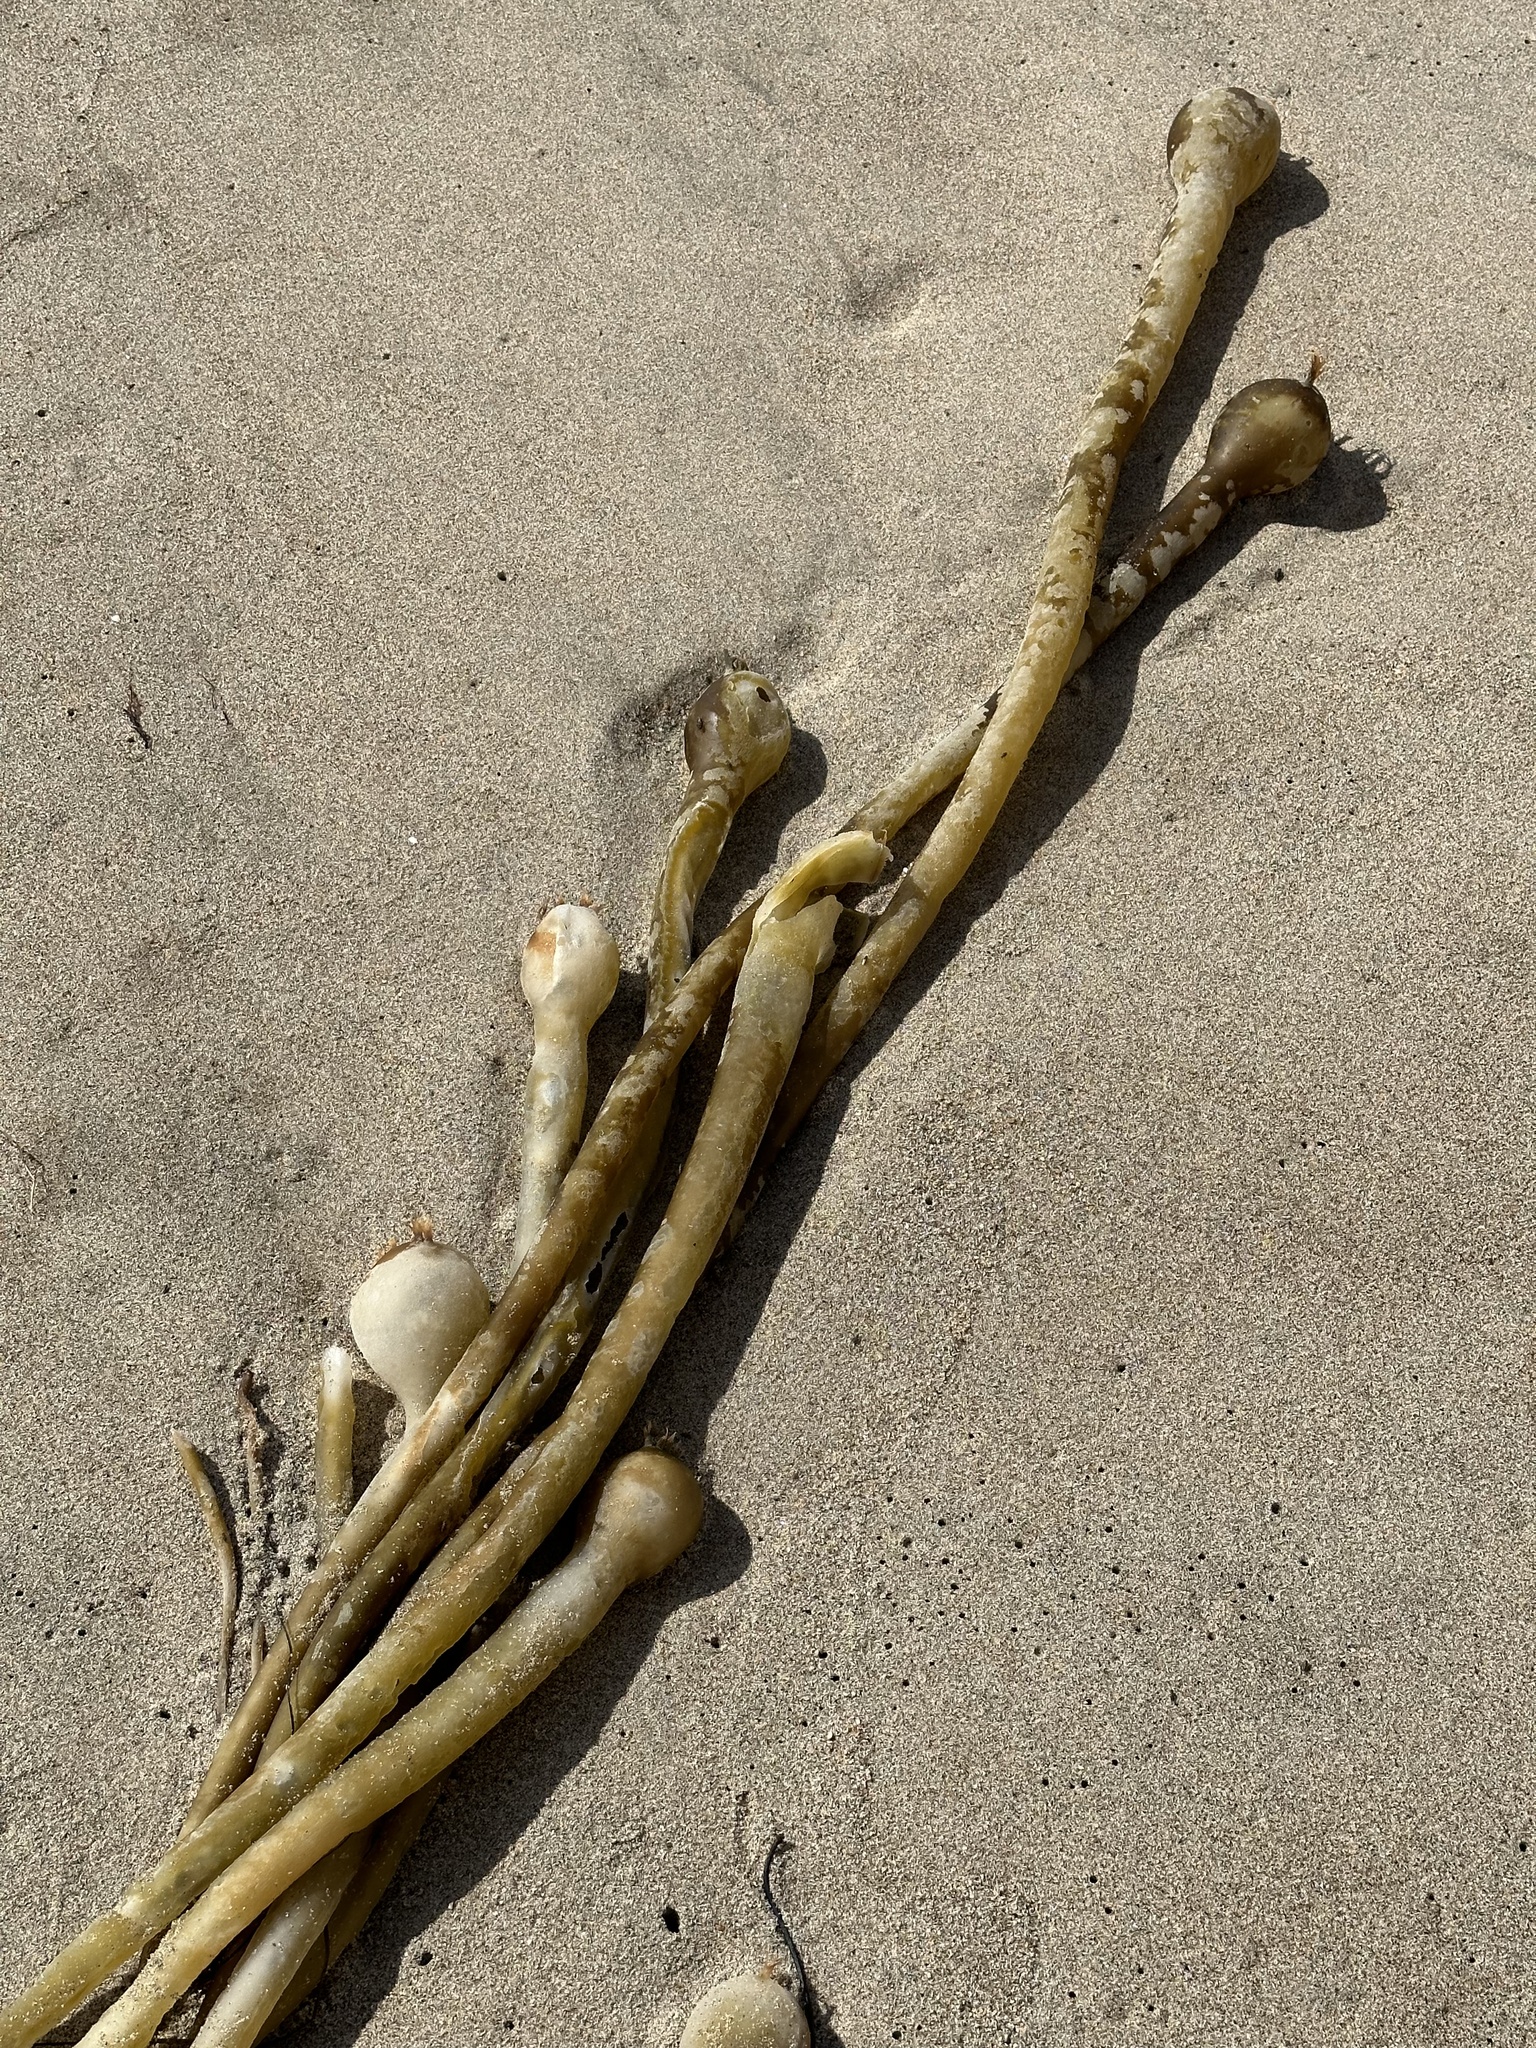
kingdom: Chromista
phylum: Ochrophyta
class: Phaeophyceae
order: Laminariales
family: Laminariaceae
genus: Nereocystis
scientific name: Nereocystis luetkeana
